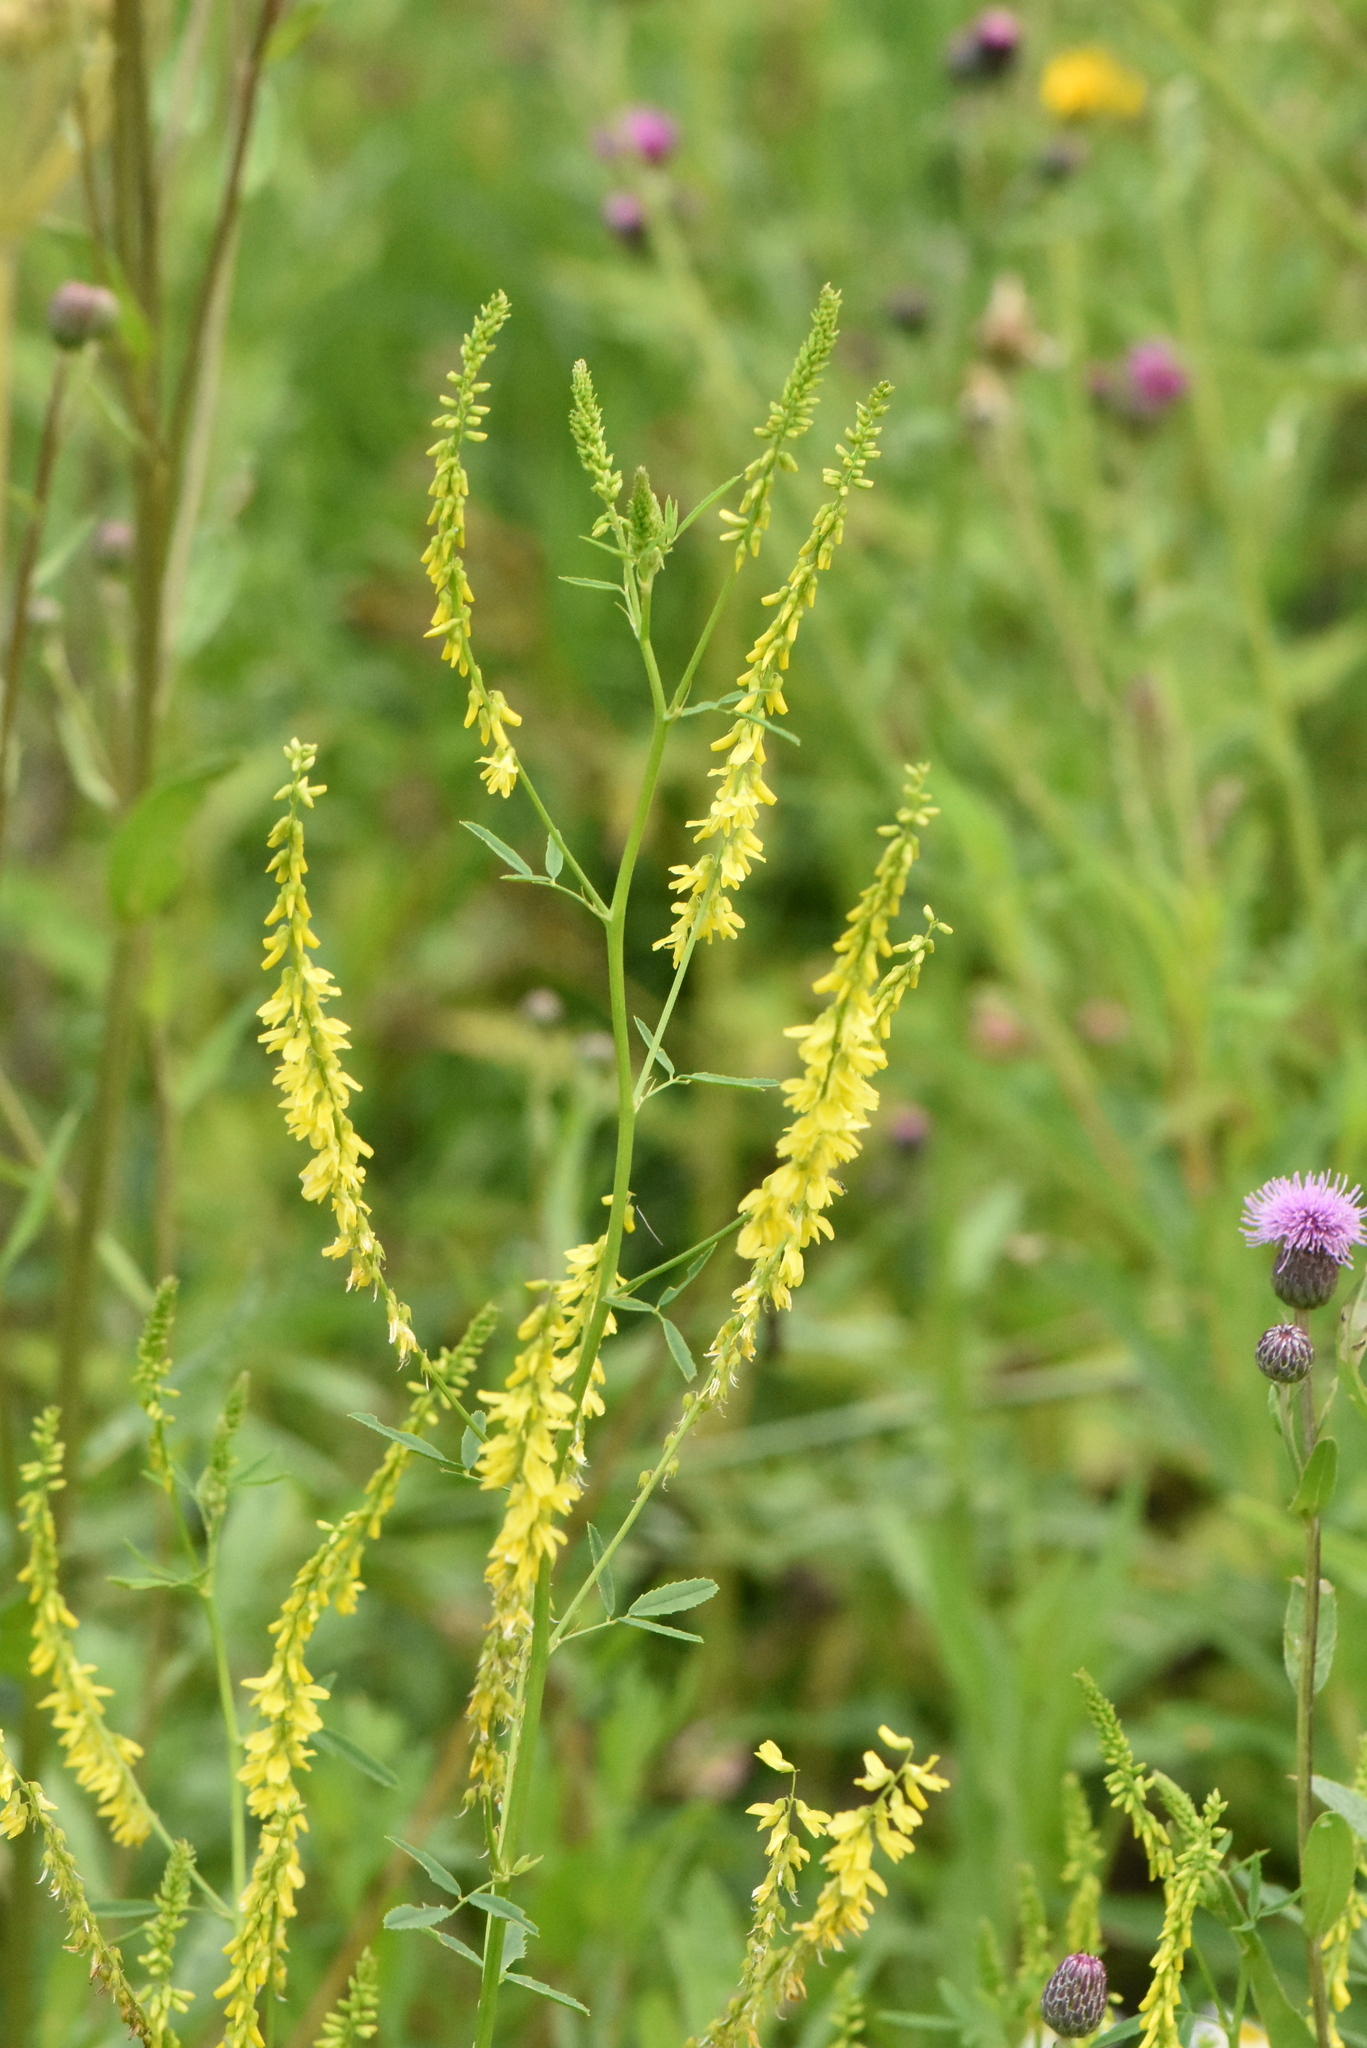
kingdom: Plantae
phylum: Tracheophyta
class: Magnoliopsida
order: Fabales
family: Fabaceae
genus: Melilotus
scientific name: Melilotus officinalis
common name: Sweetclover
